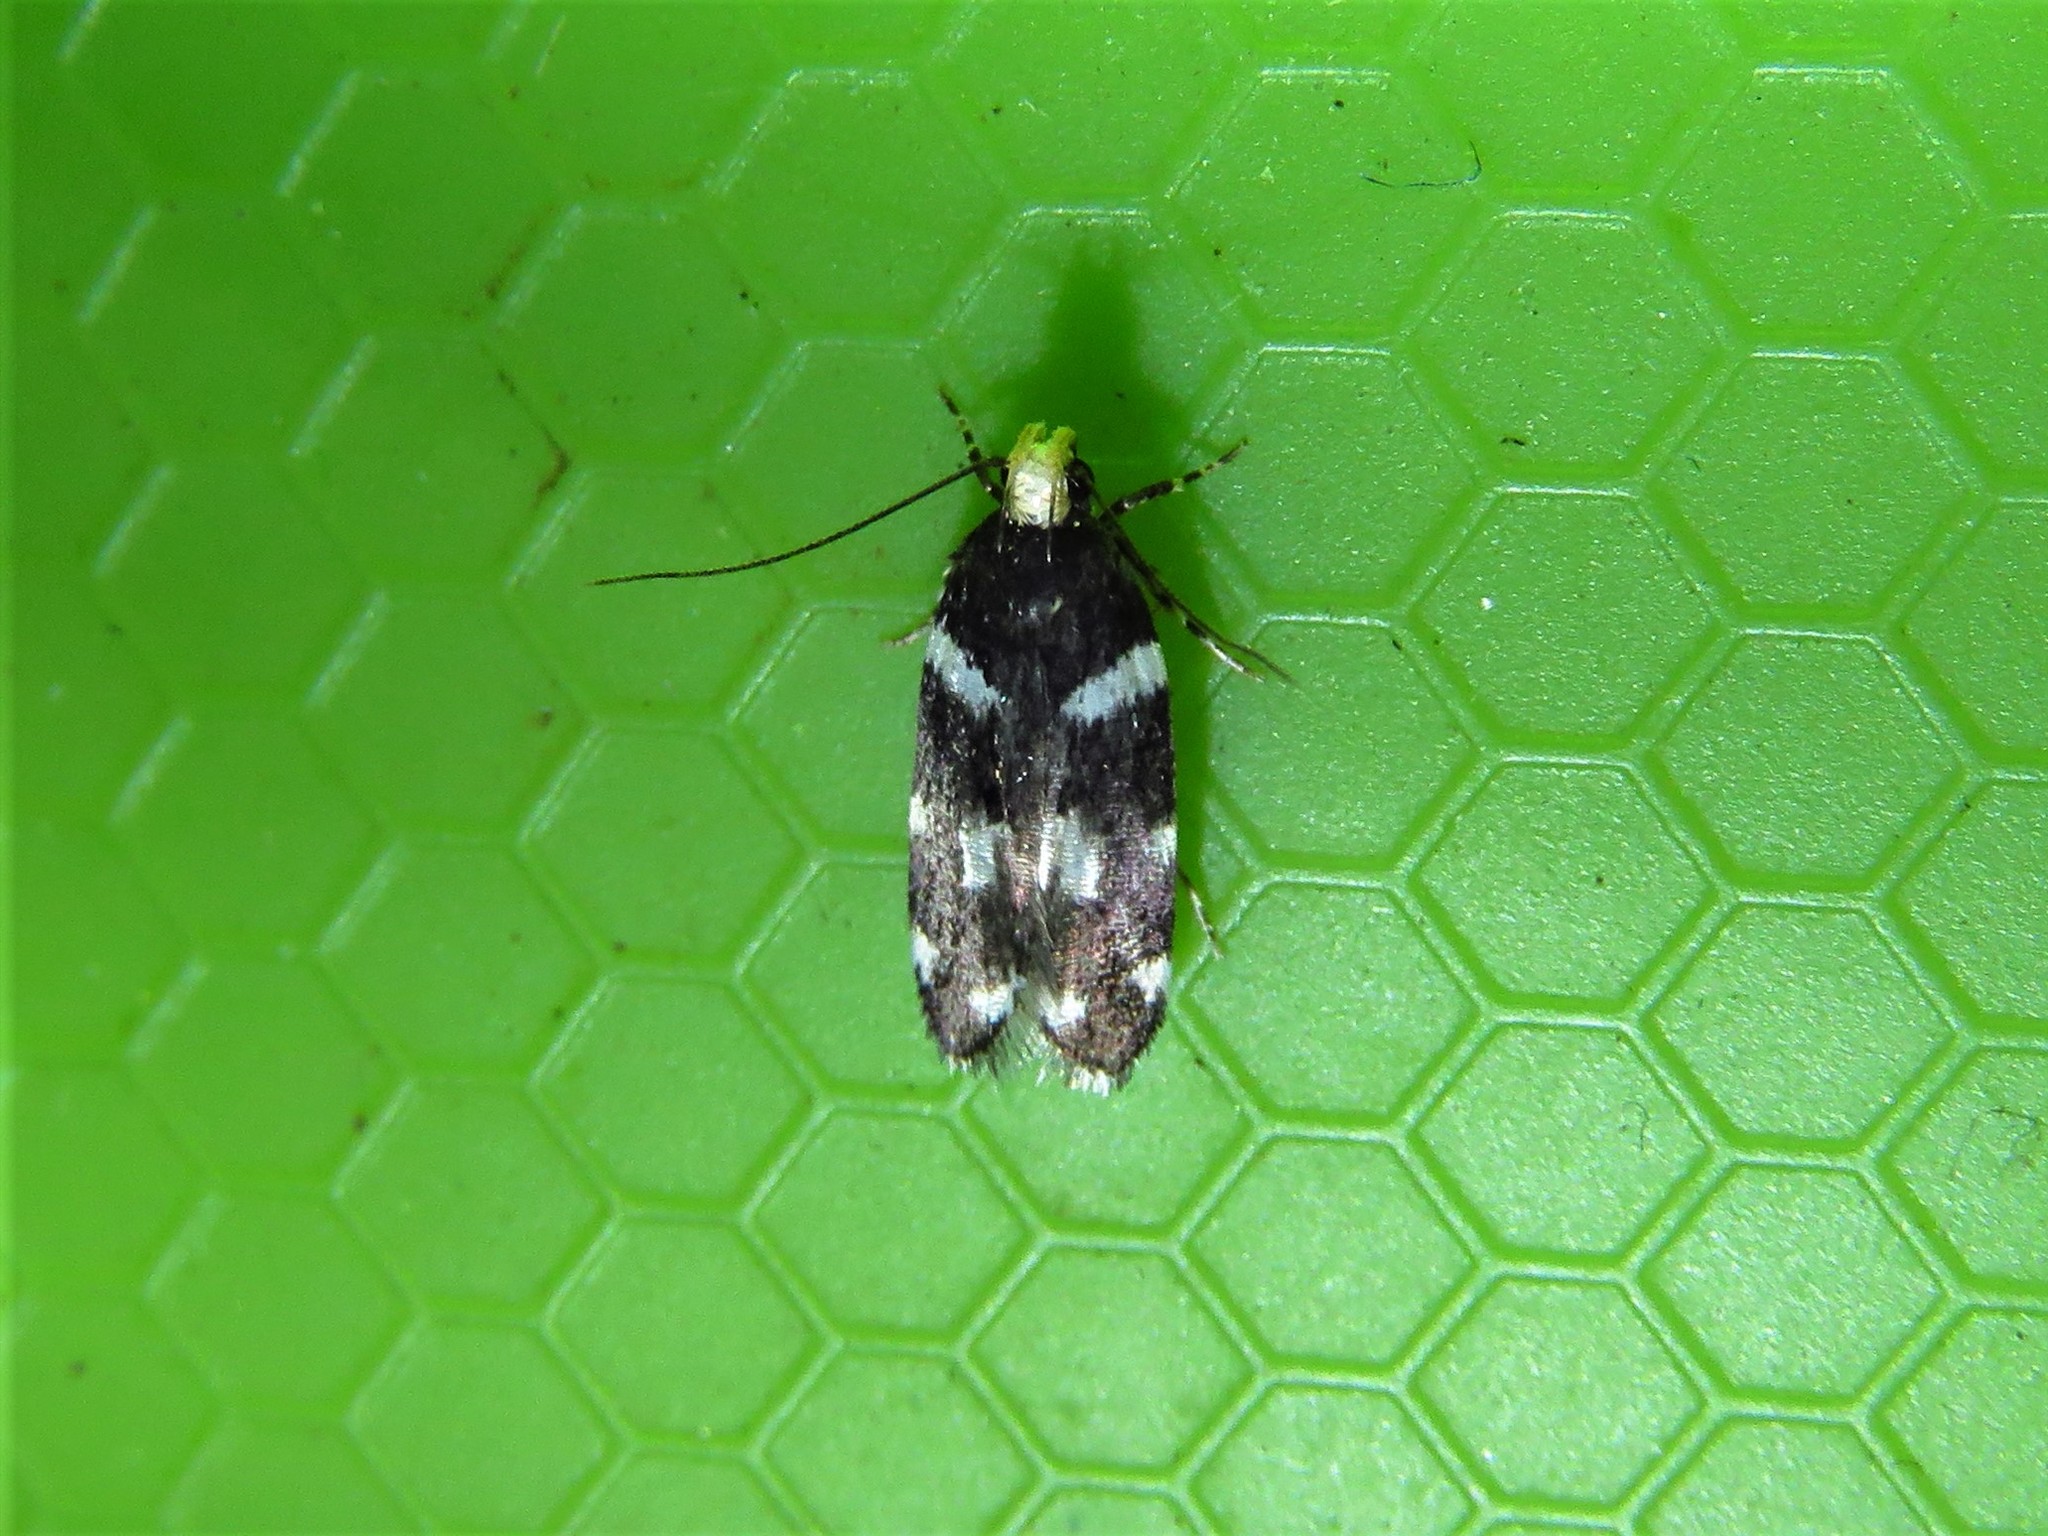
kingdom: Animalia
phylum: Arthropoda
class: Insecta
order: Lepidoptera
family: Gelechiidae
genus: Fascista
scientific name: Fascista quinella
